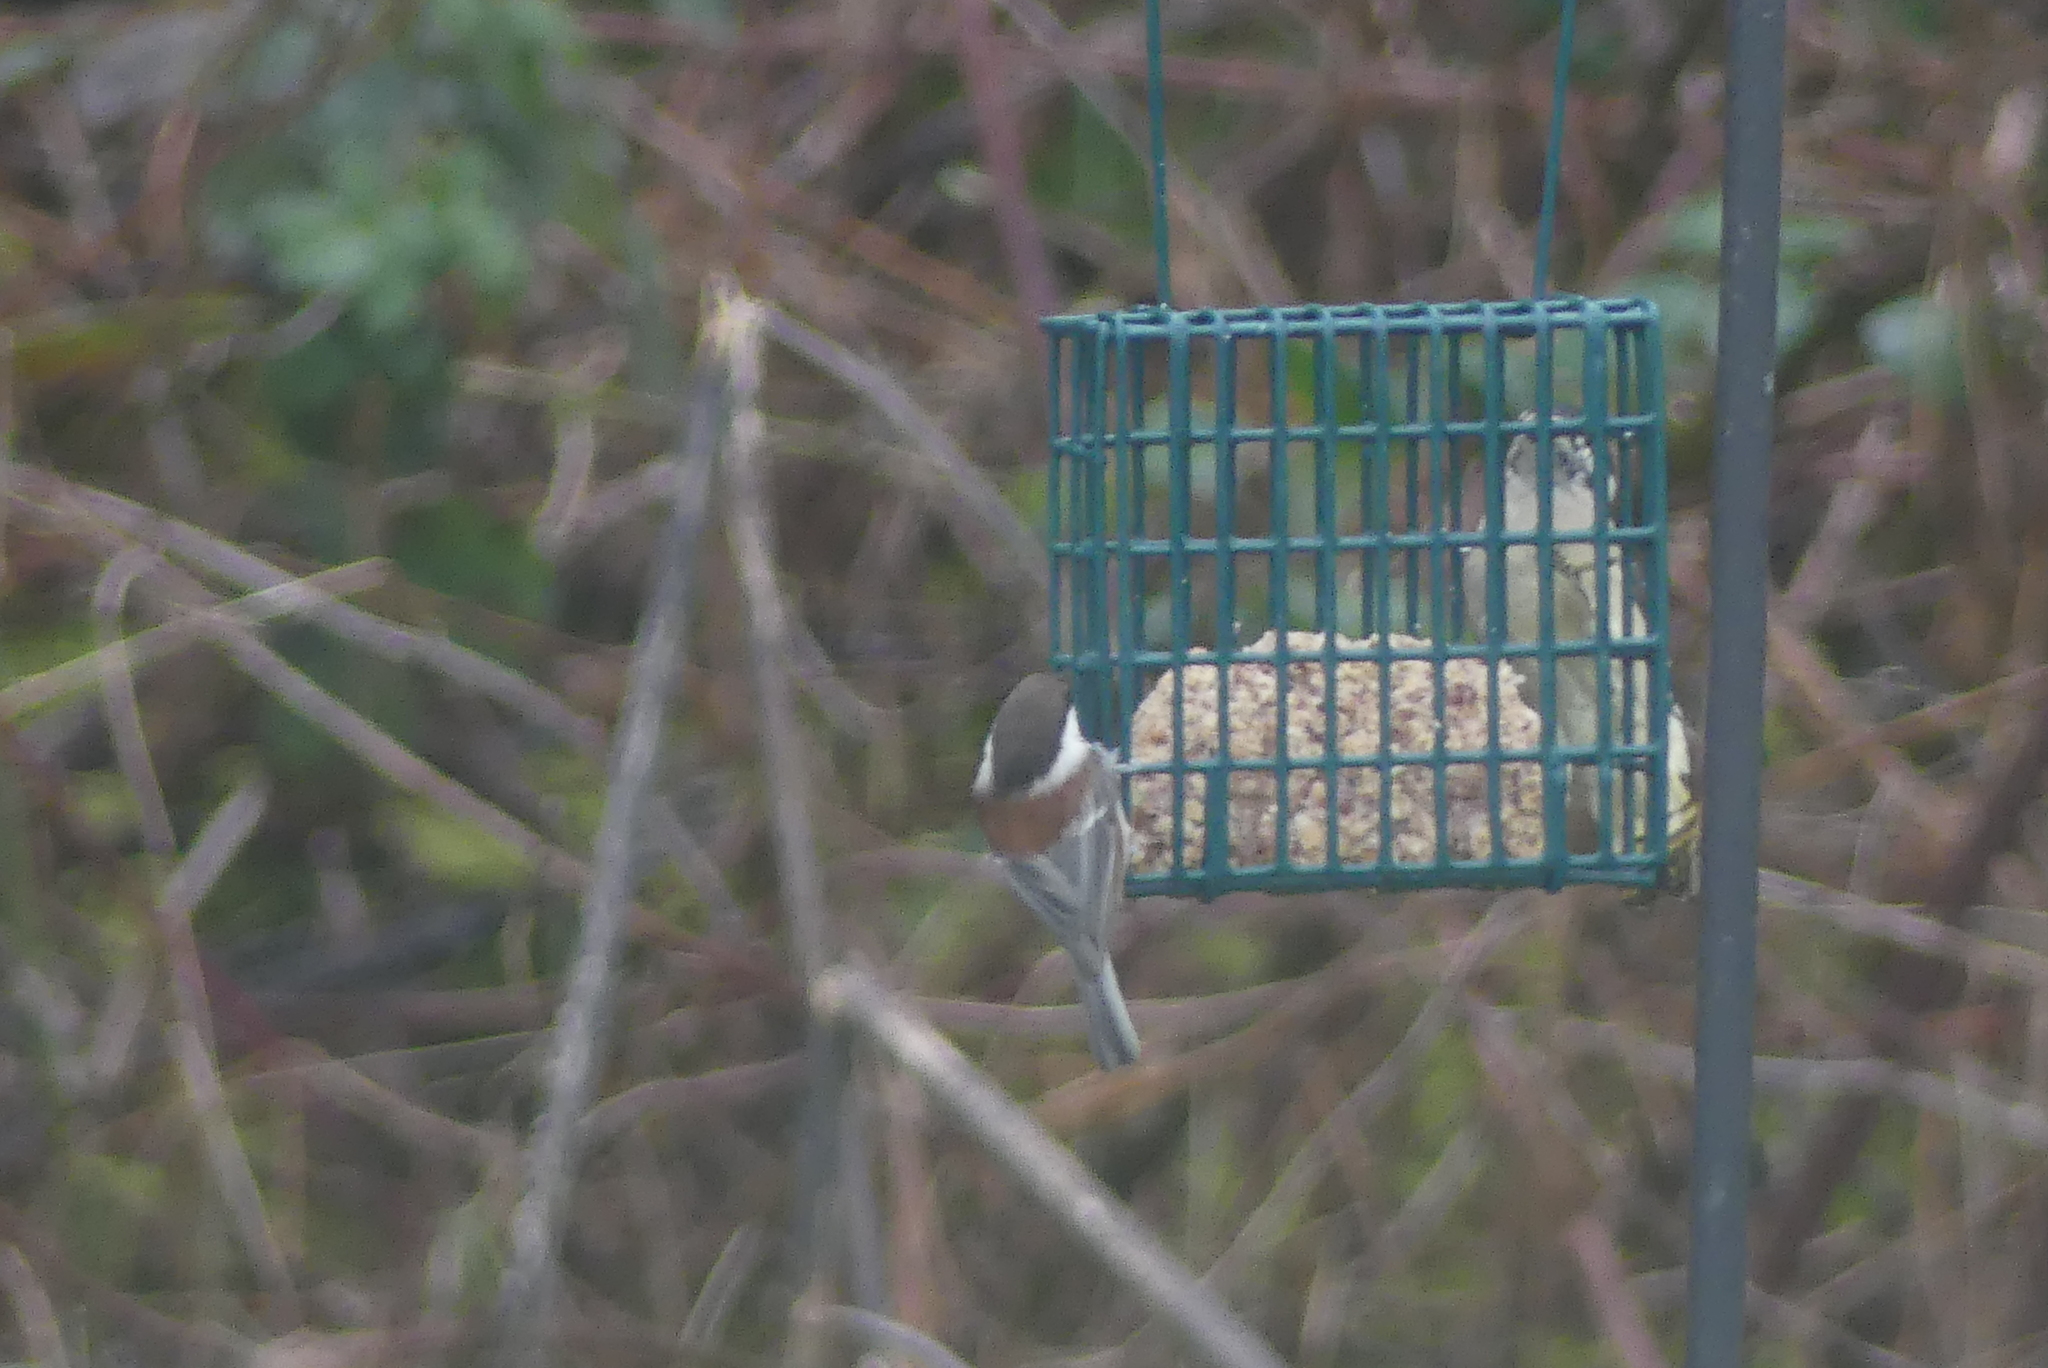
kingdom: Animalia
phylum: Chordata
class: Aves
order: Passeriformes
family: Paridae
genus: Poecile
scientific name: Poecile rufescens
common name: Chestnut-backed chickadee
